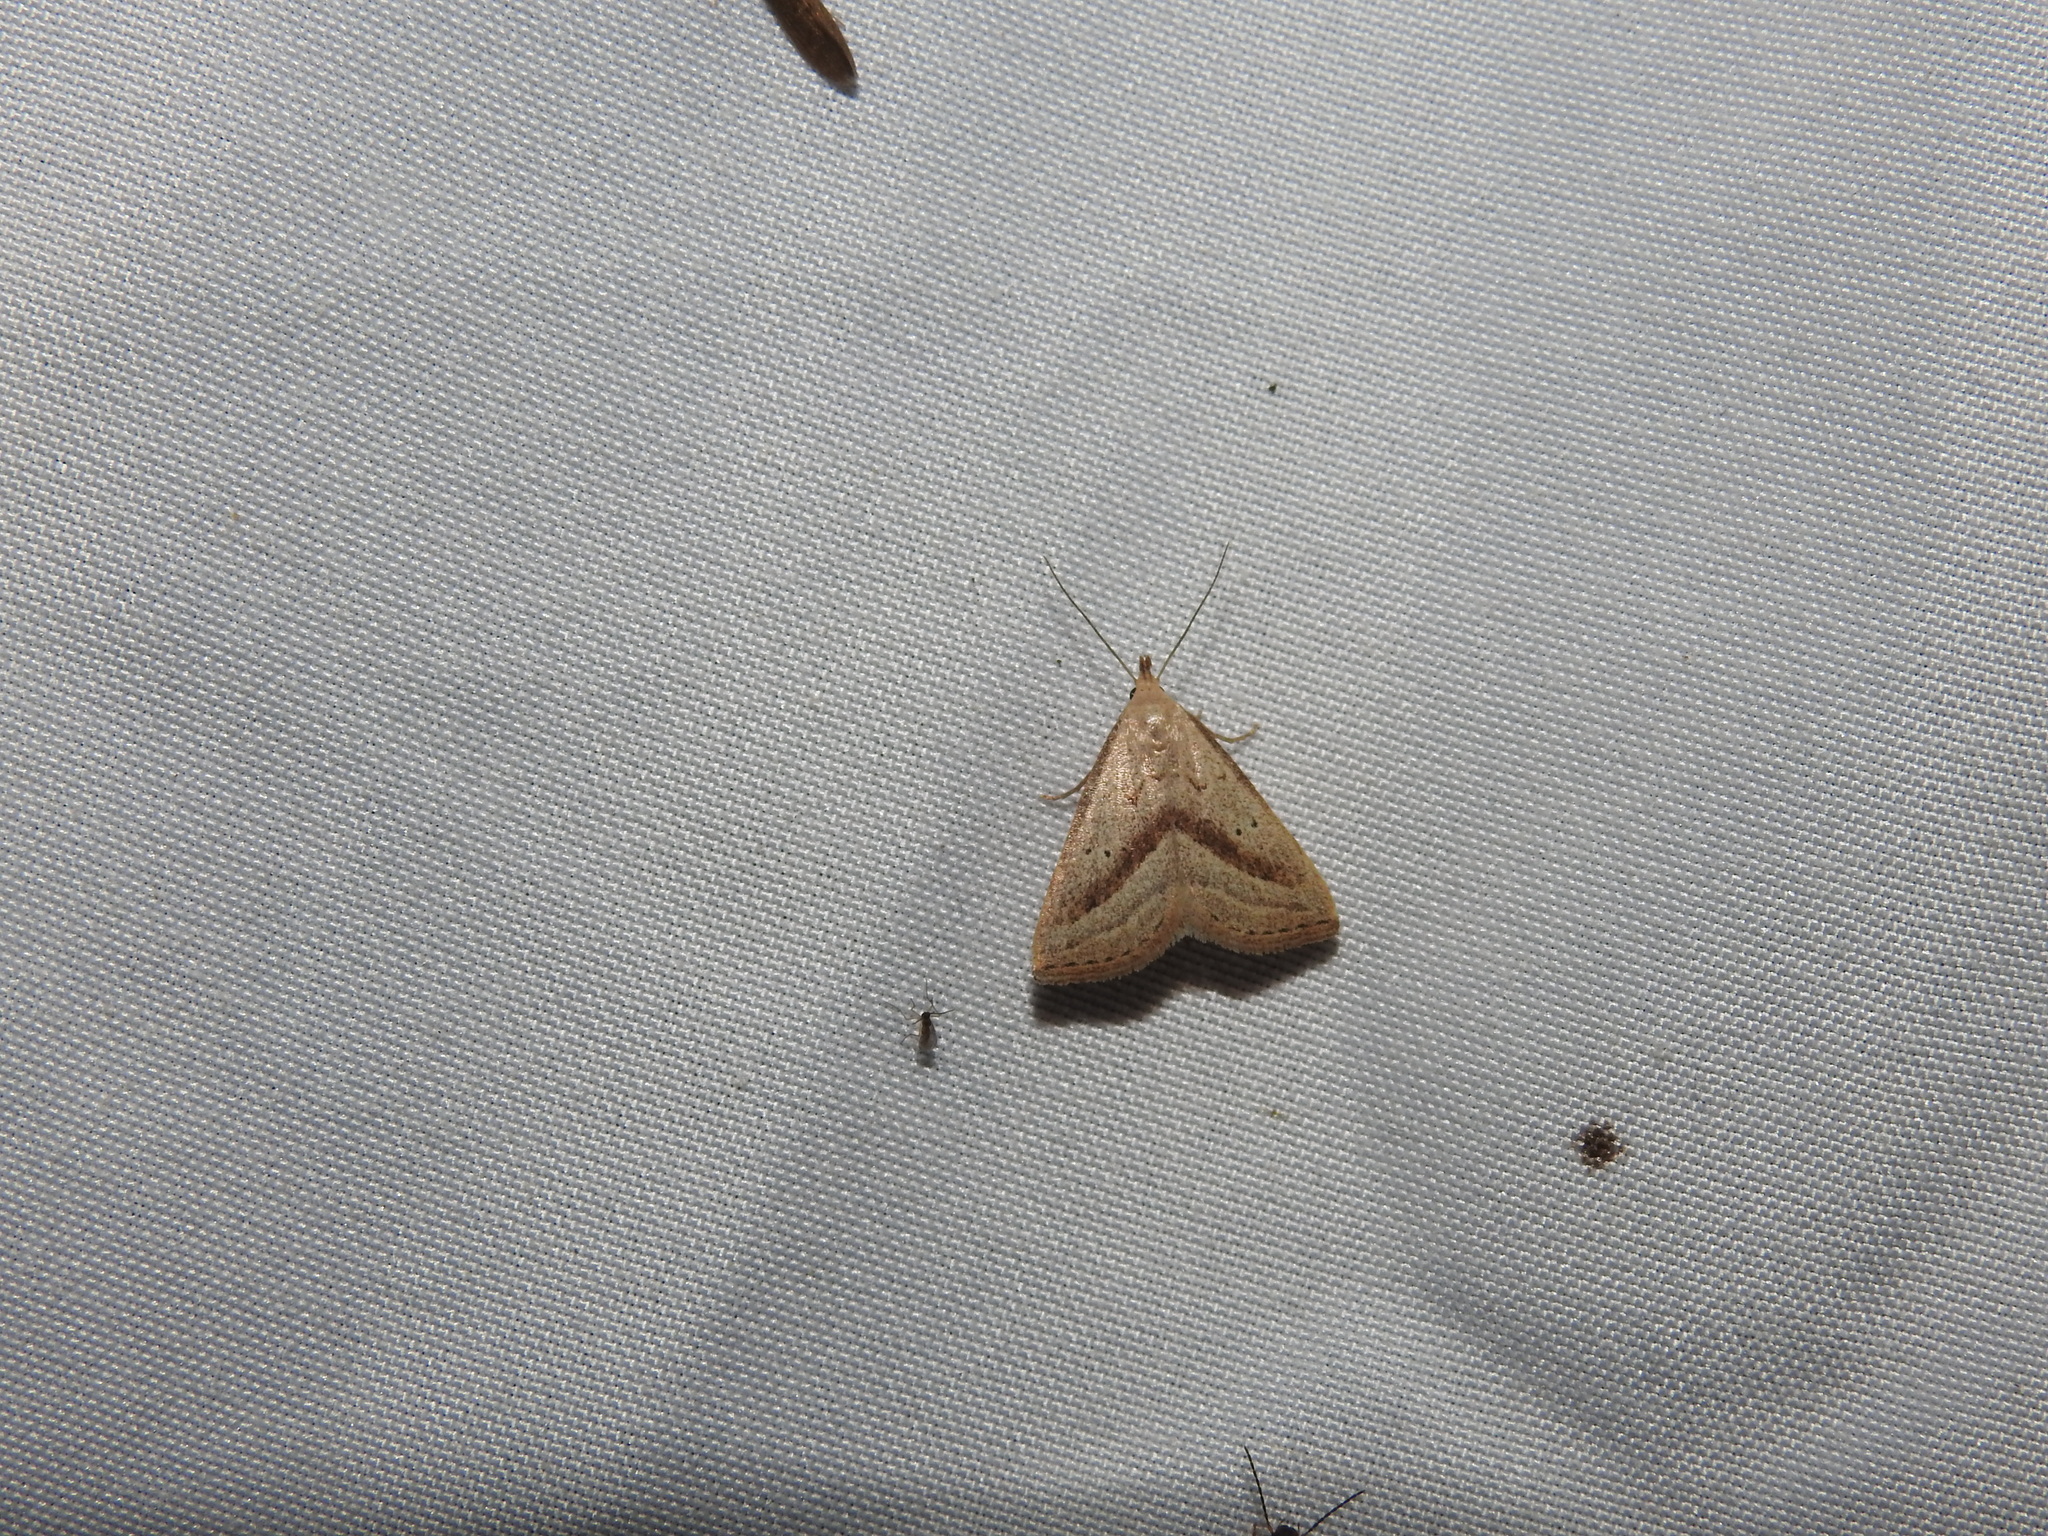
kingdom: Animalia
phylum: Arthropoda
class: Insecta
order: Lepidoptera
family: Erebidae
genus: Macrochilo
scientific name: Macrochilo hypocritalis
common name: Twin-dotted owlet
